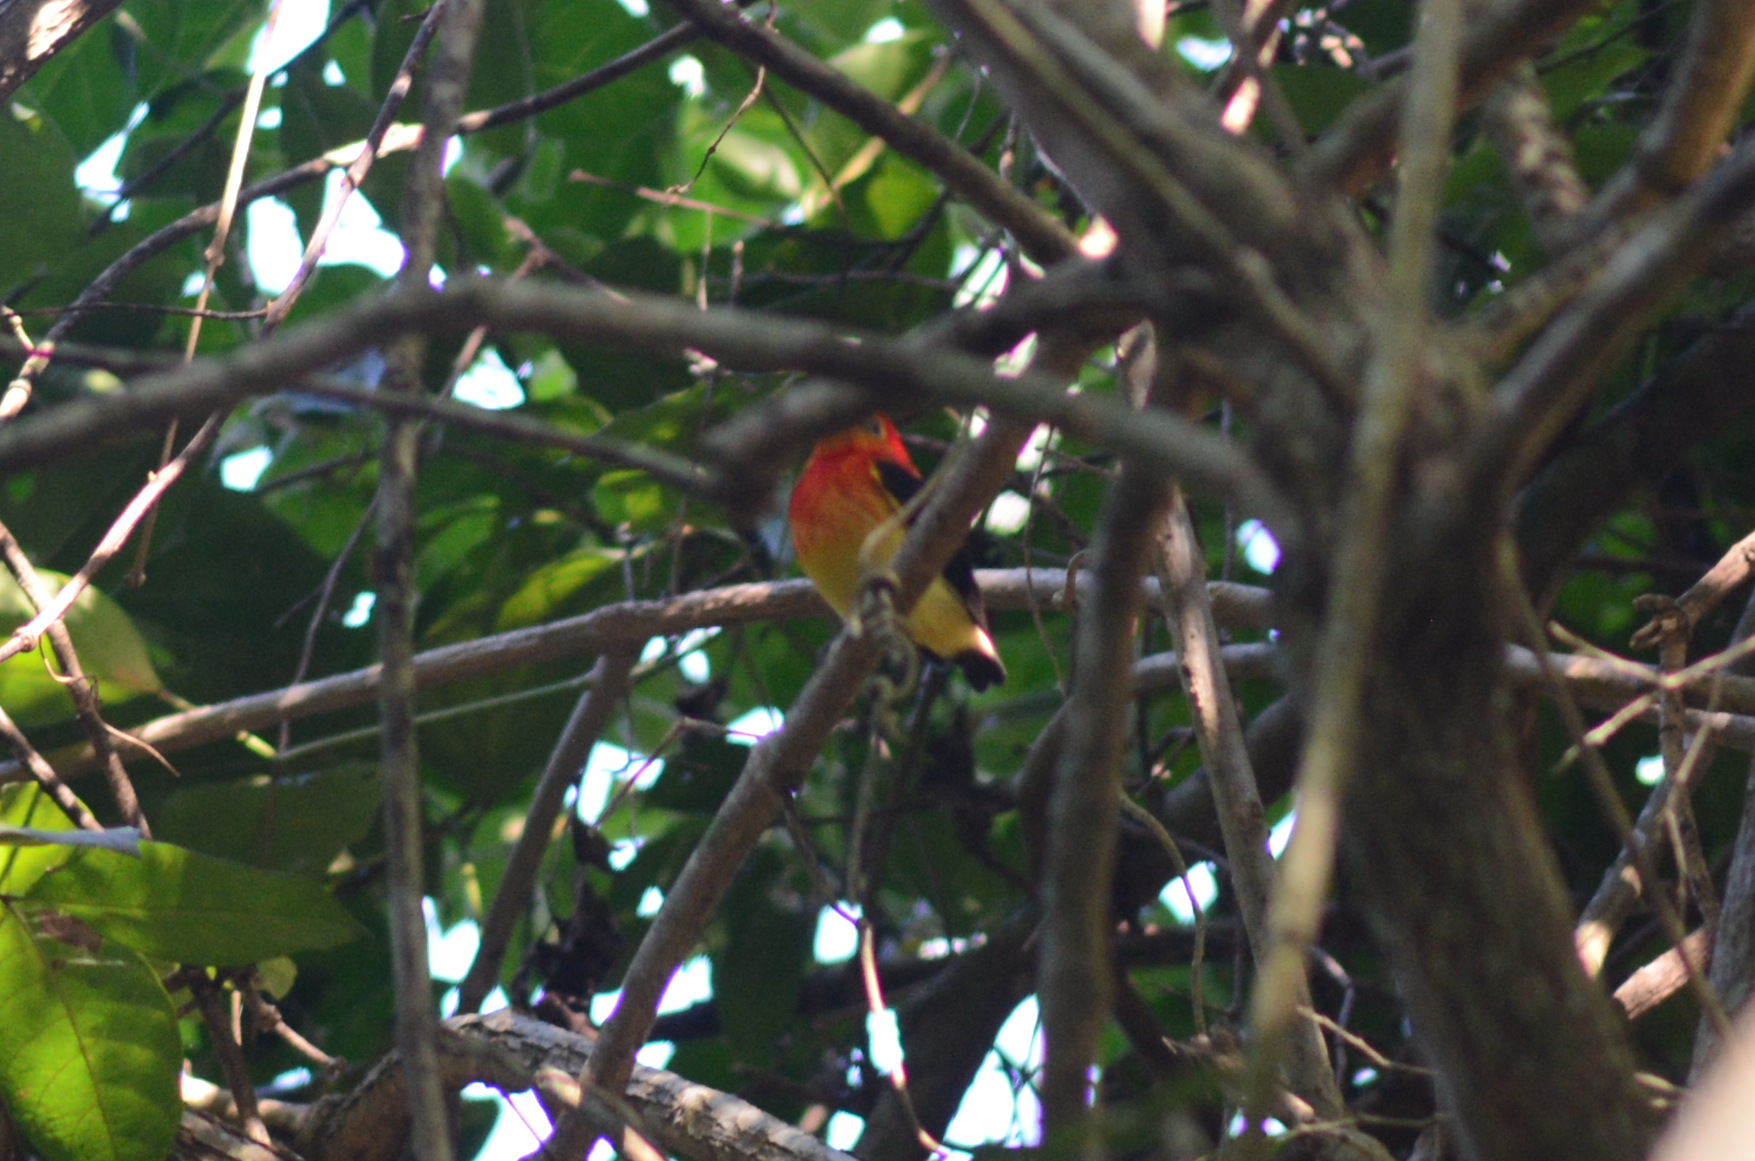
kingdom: Animalia
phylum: Chordata
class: Aves
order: Passeriformes
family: Pipridae
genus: Pipra
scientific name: Pipra fasciicauda
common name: Band-tailed manakin
